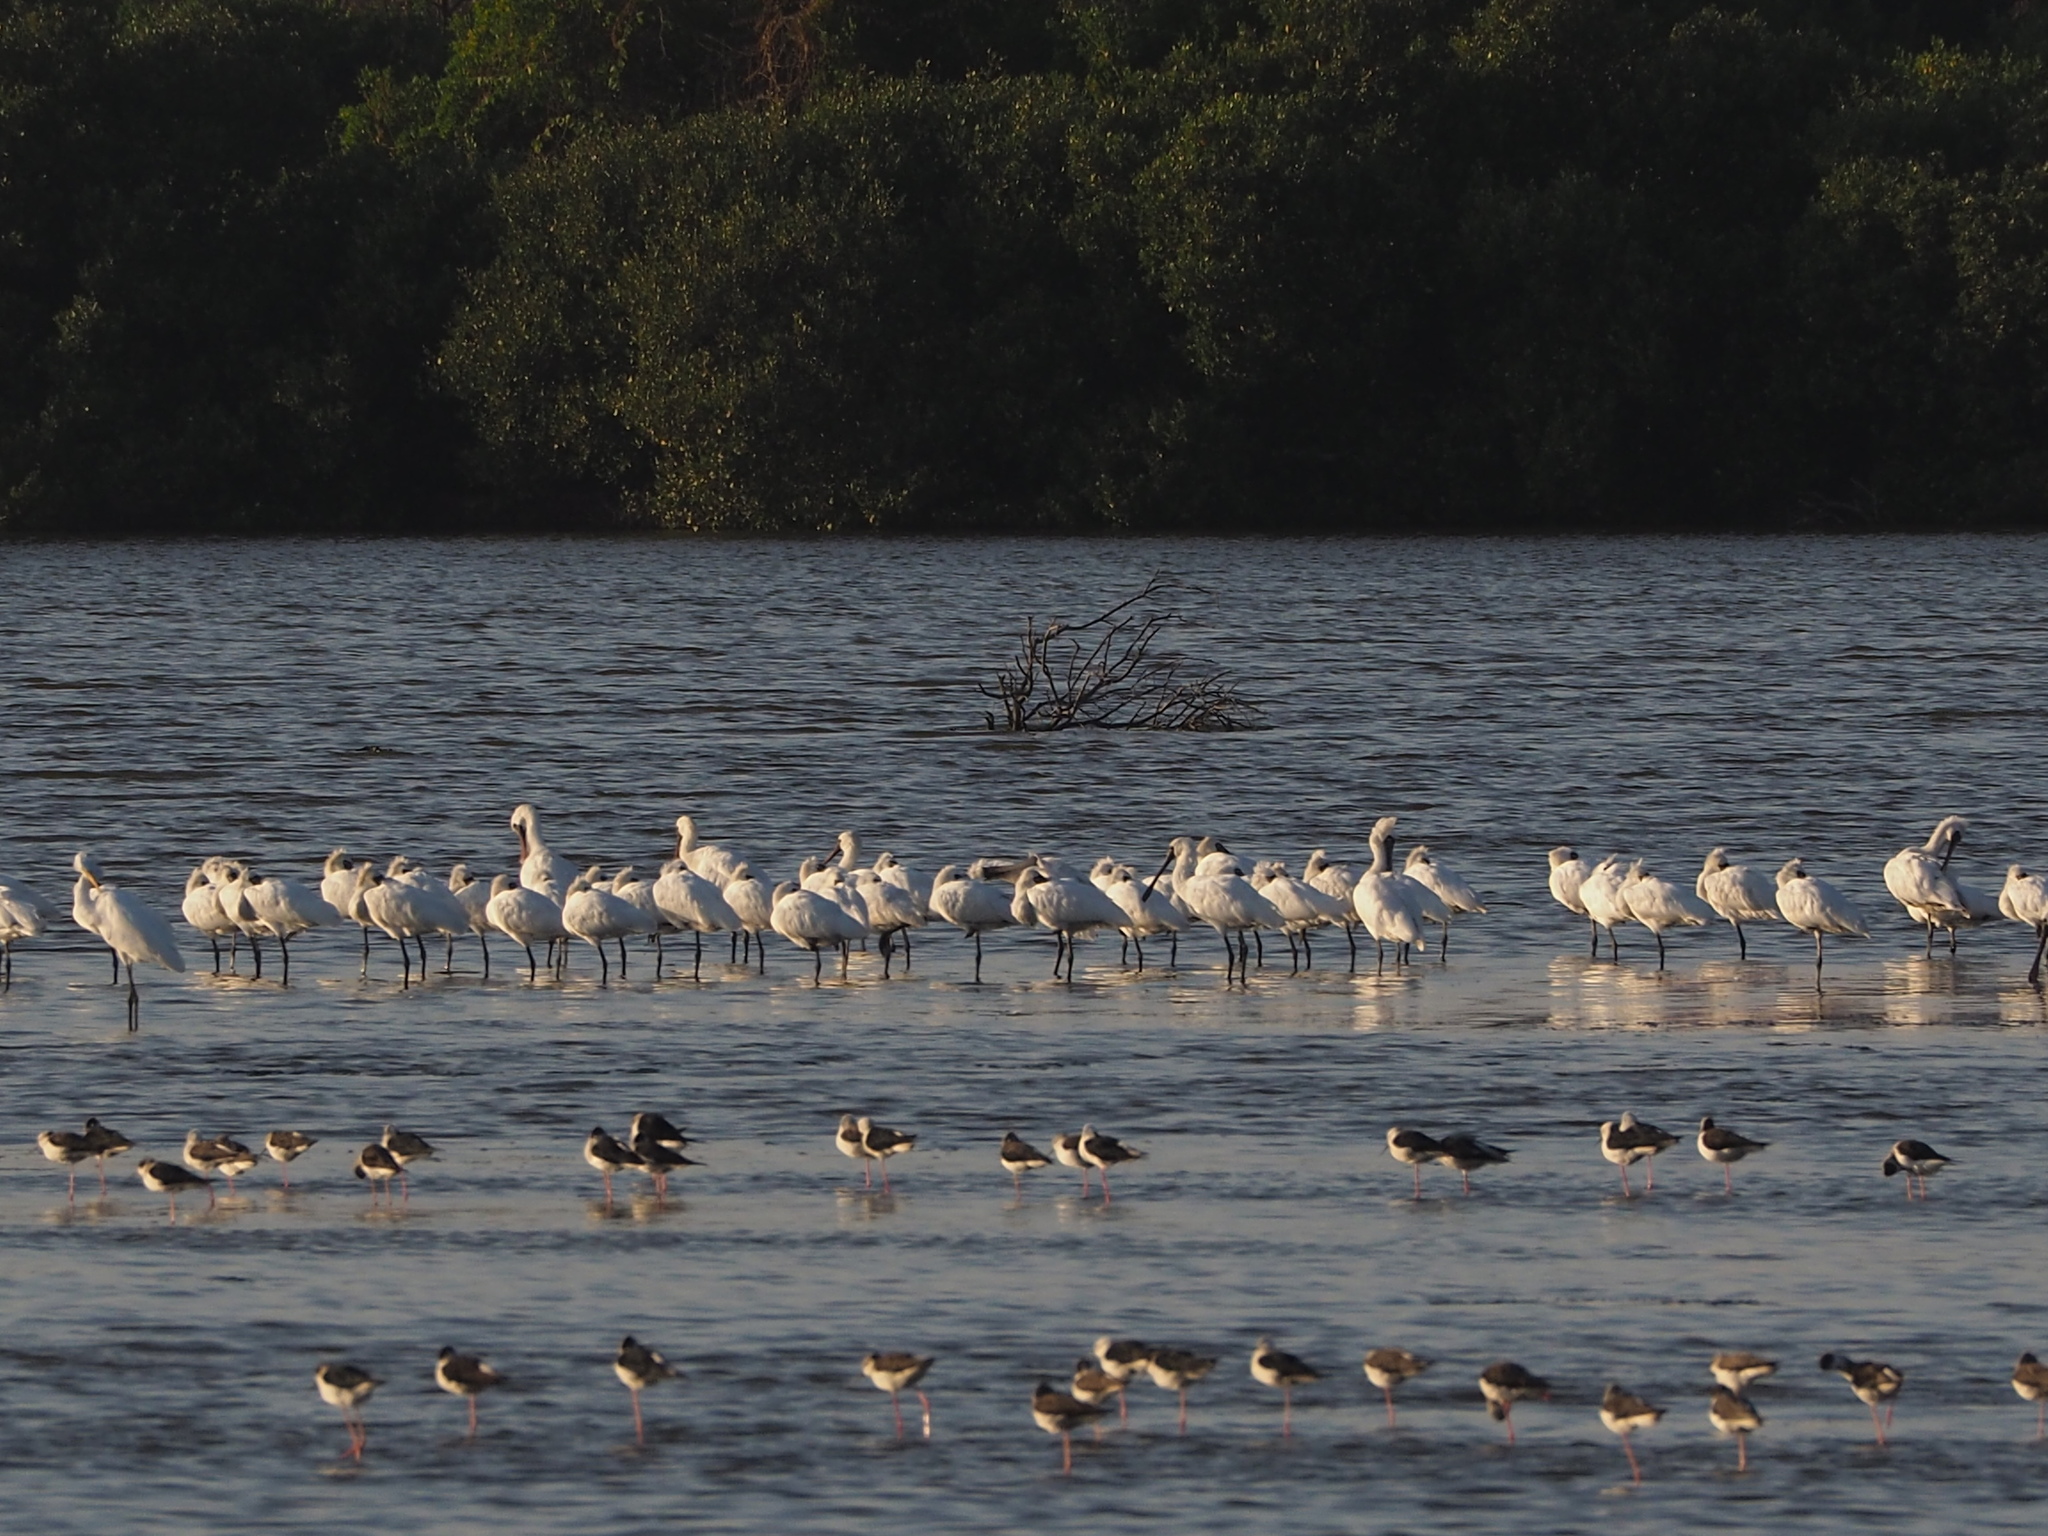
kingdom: Animalia
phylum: Chordata
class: Aves
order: Pelecaniformes
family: Threskiornithidae
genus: Platalea
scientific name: Platalea minor
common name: Black-faced spoonbill
